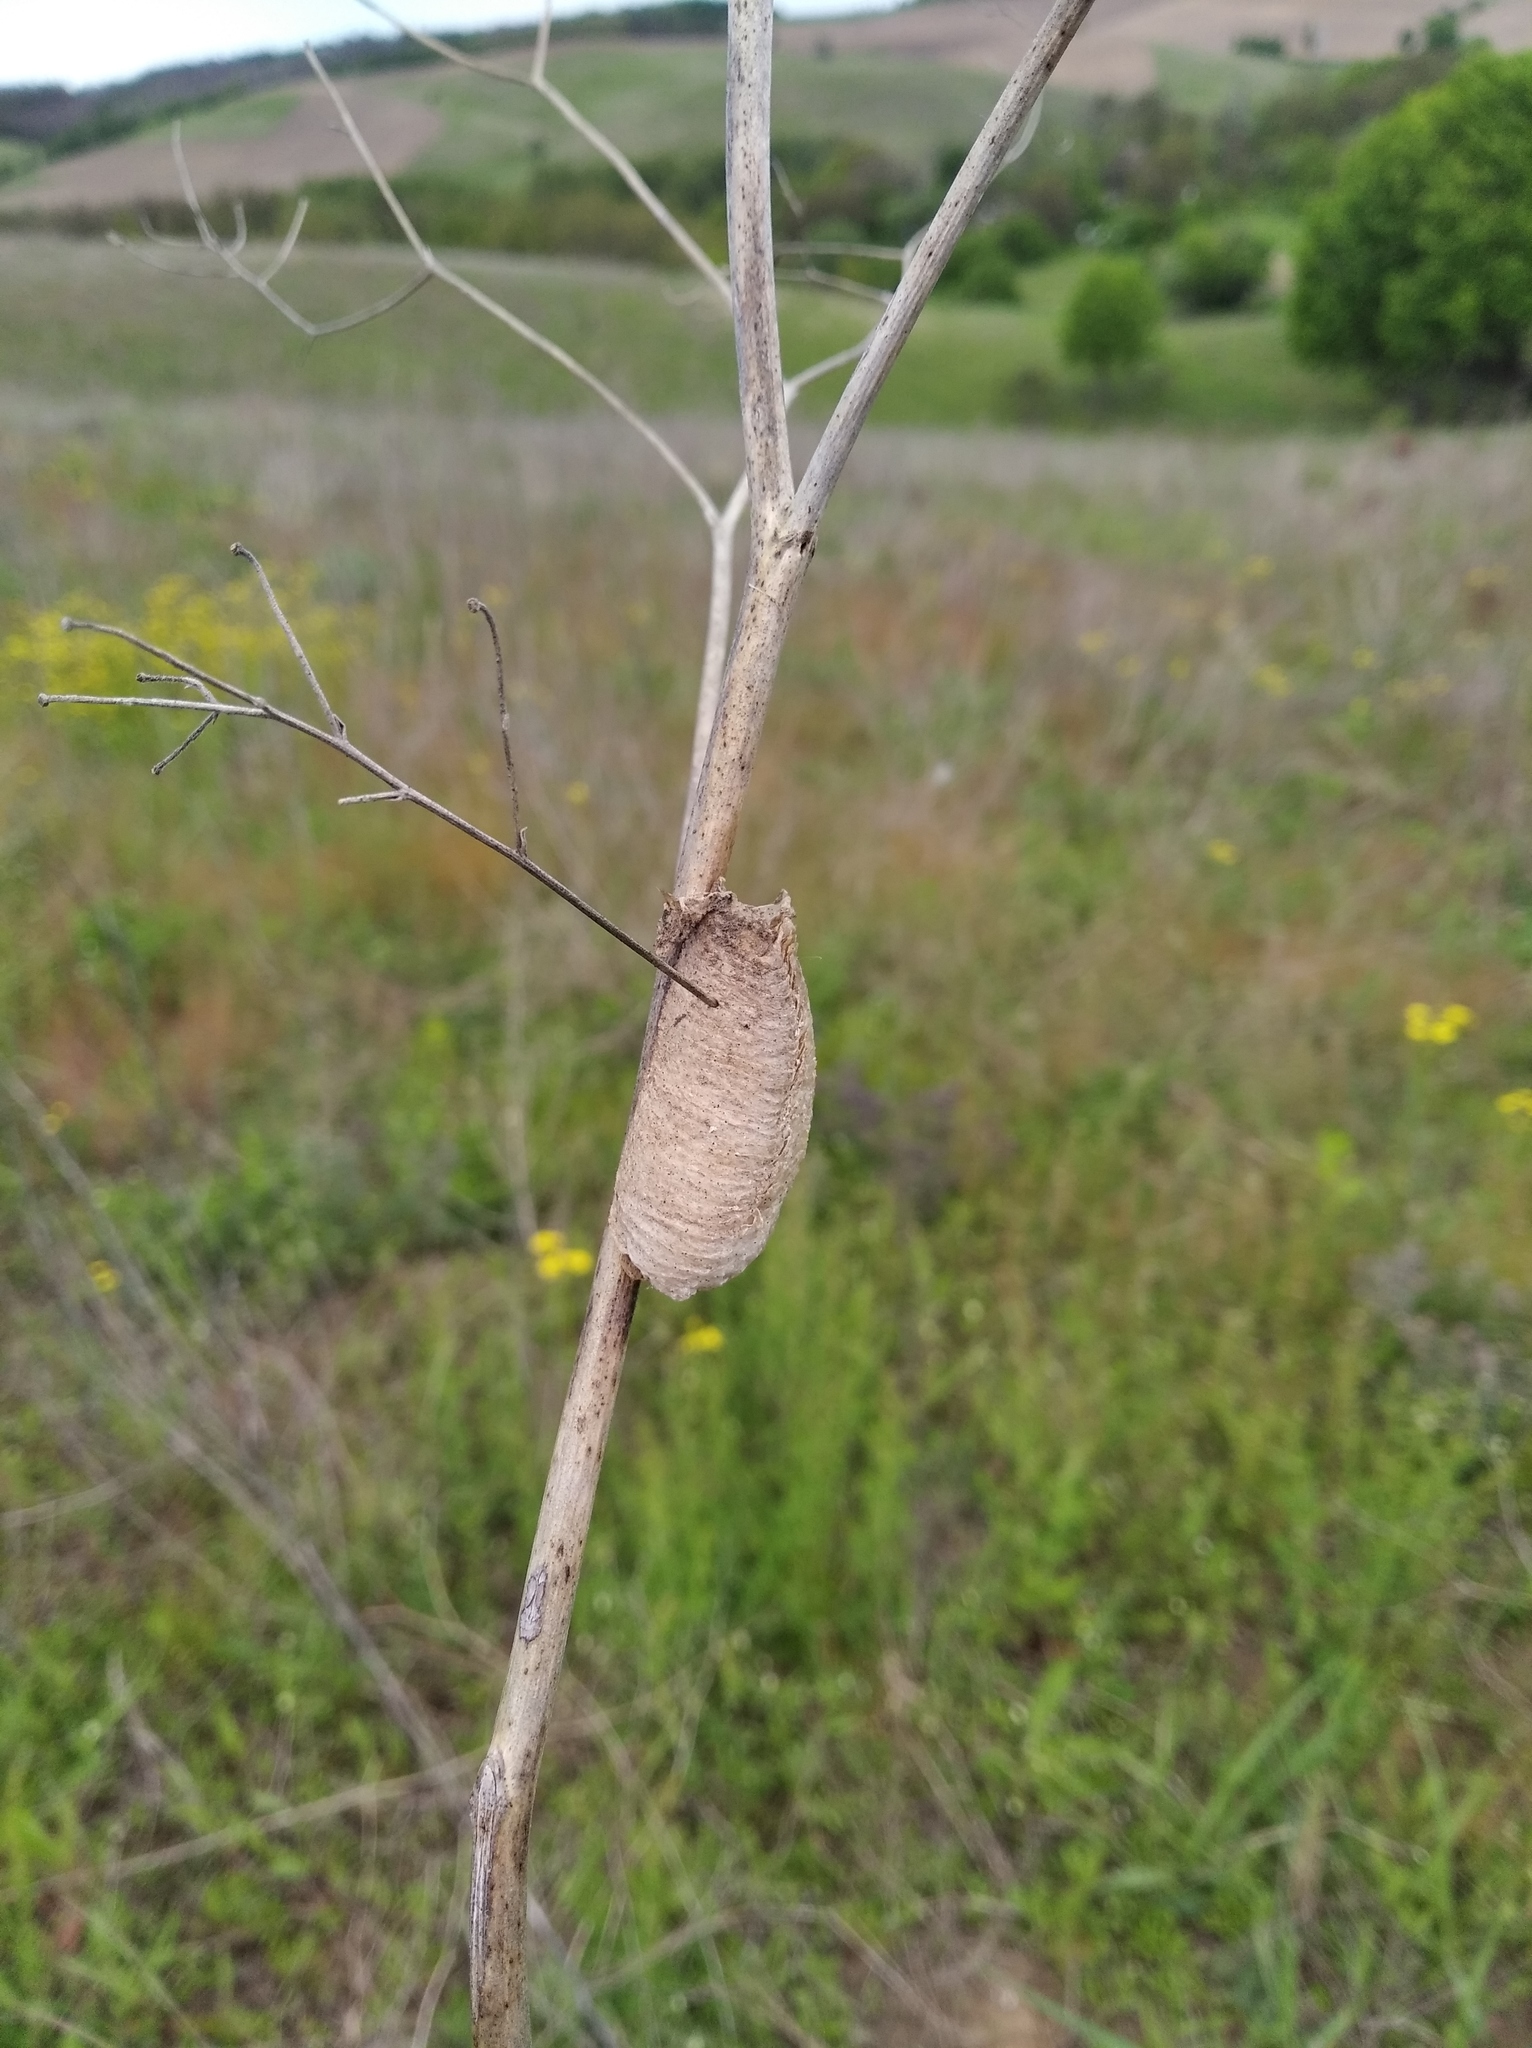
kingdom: Animalia
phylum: Arthropoda
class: Insecta
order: Mantodea
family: Mantidae
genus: Mantis
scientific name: Mantis religiosa
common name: Praying mantis
